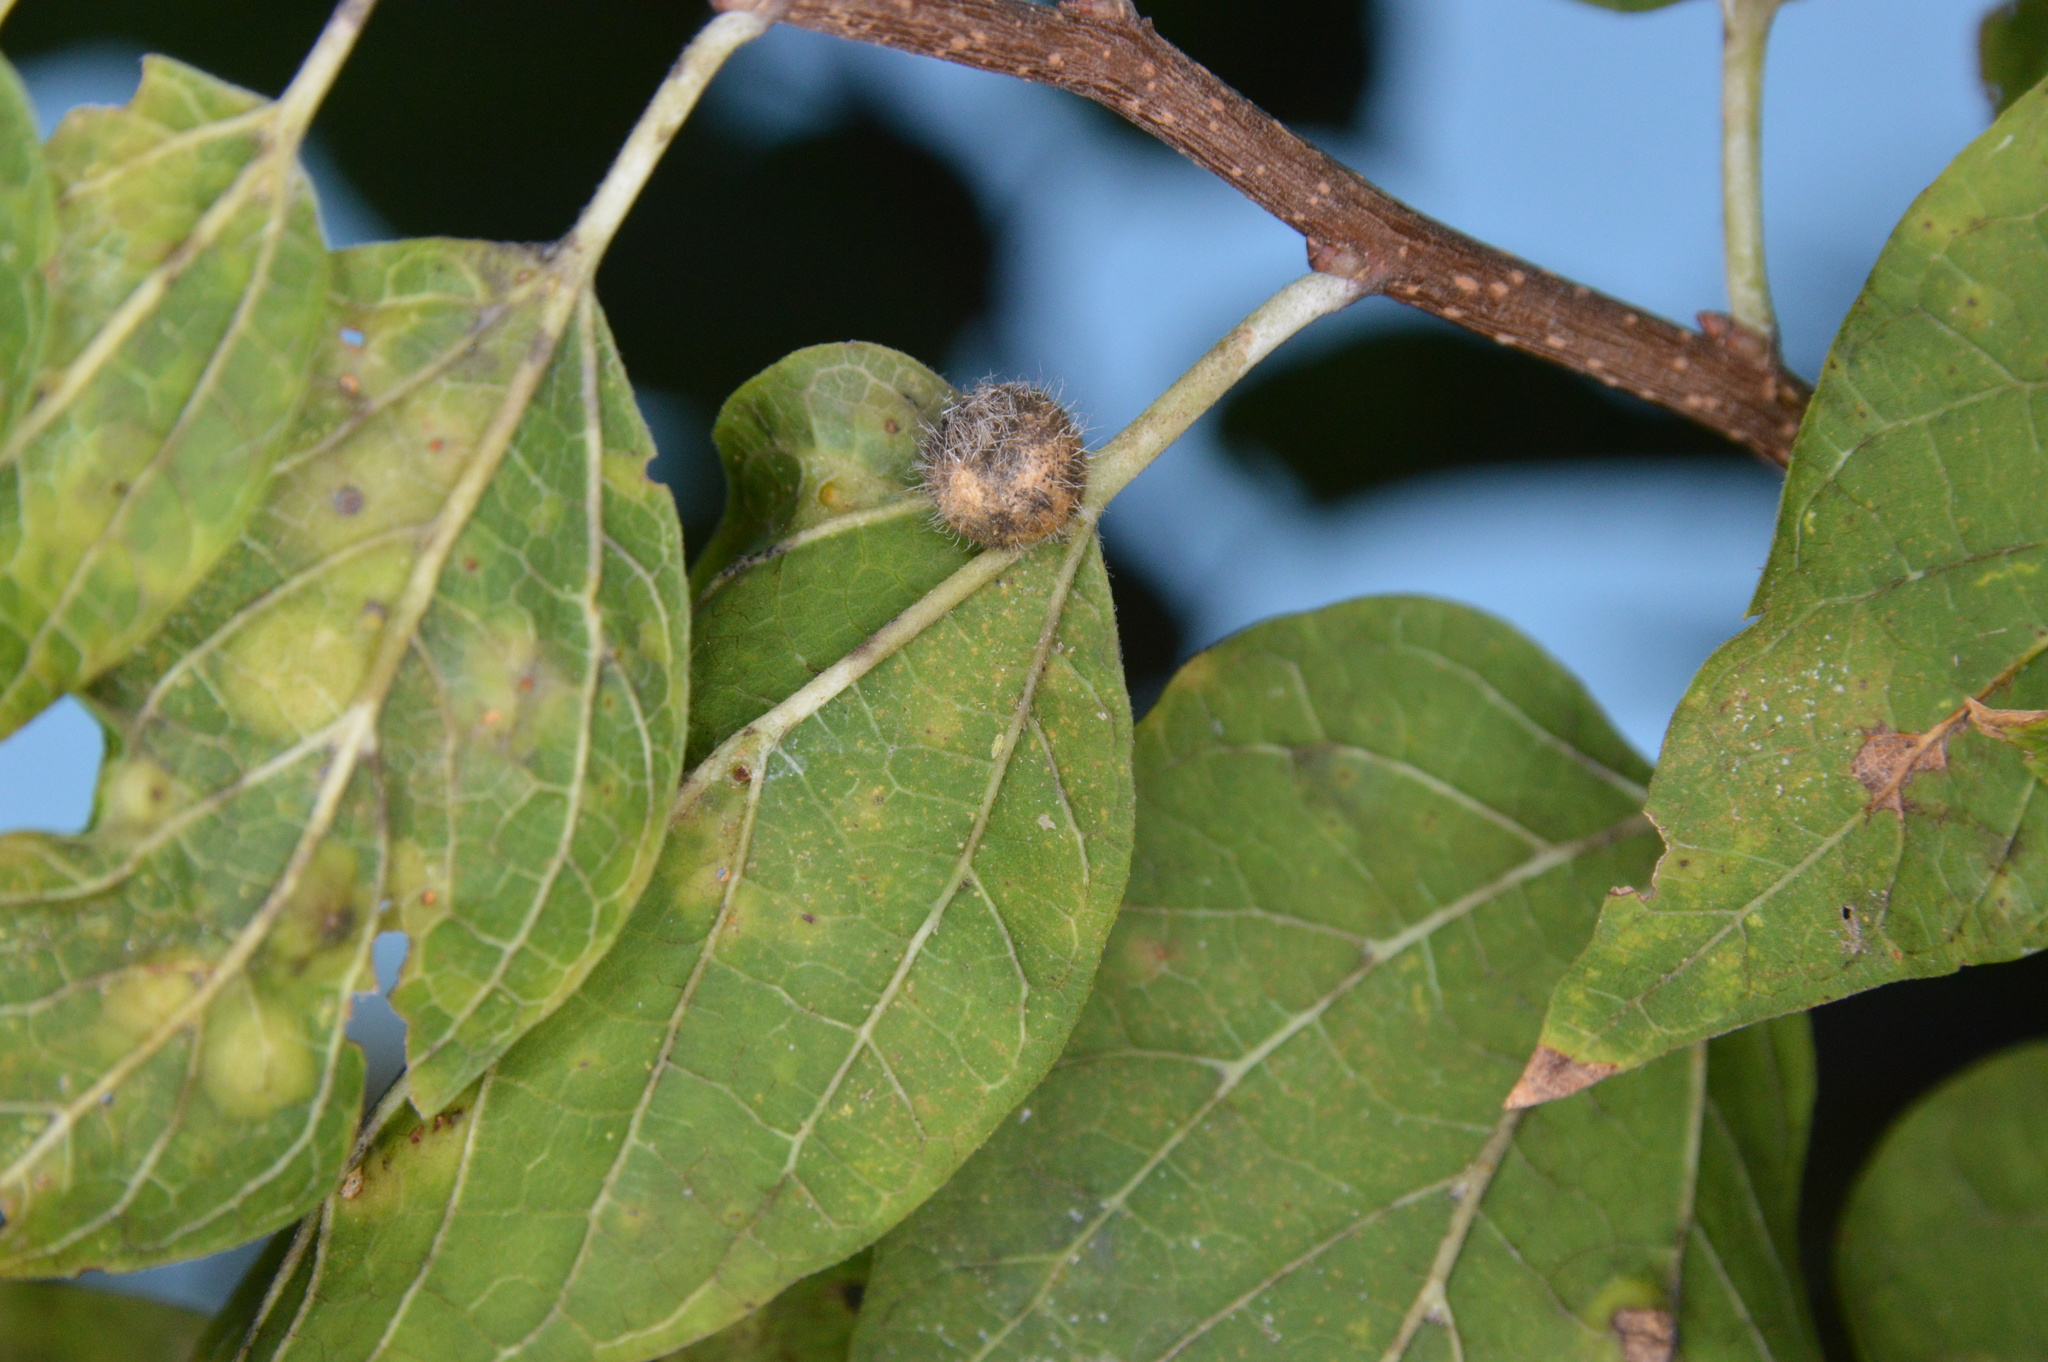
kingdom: Animalia
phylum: Arthropoda
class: Insecta
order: Diptera
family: Cecidomyiidae
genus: Celticecis
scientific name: Celticecis pubescens
